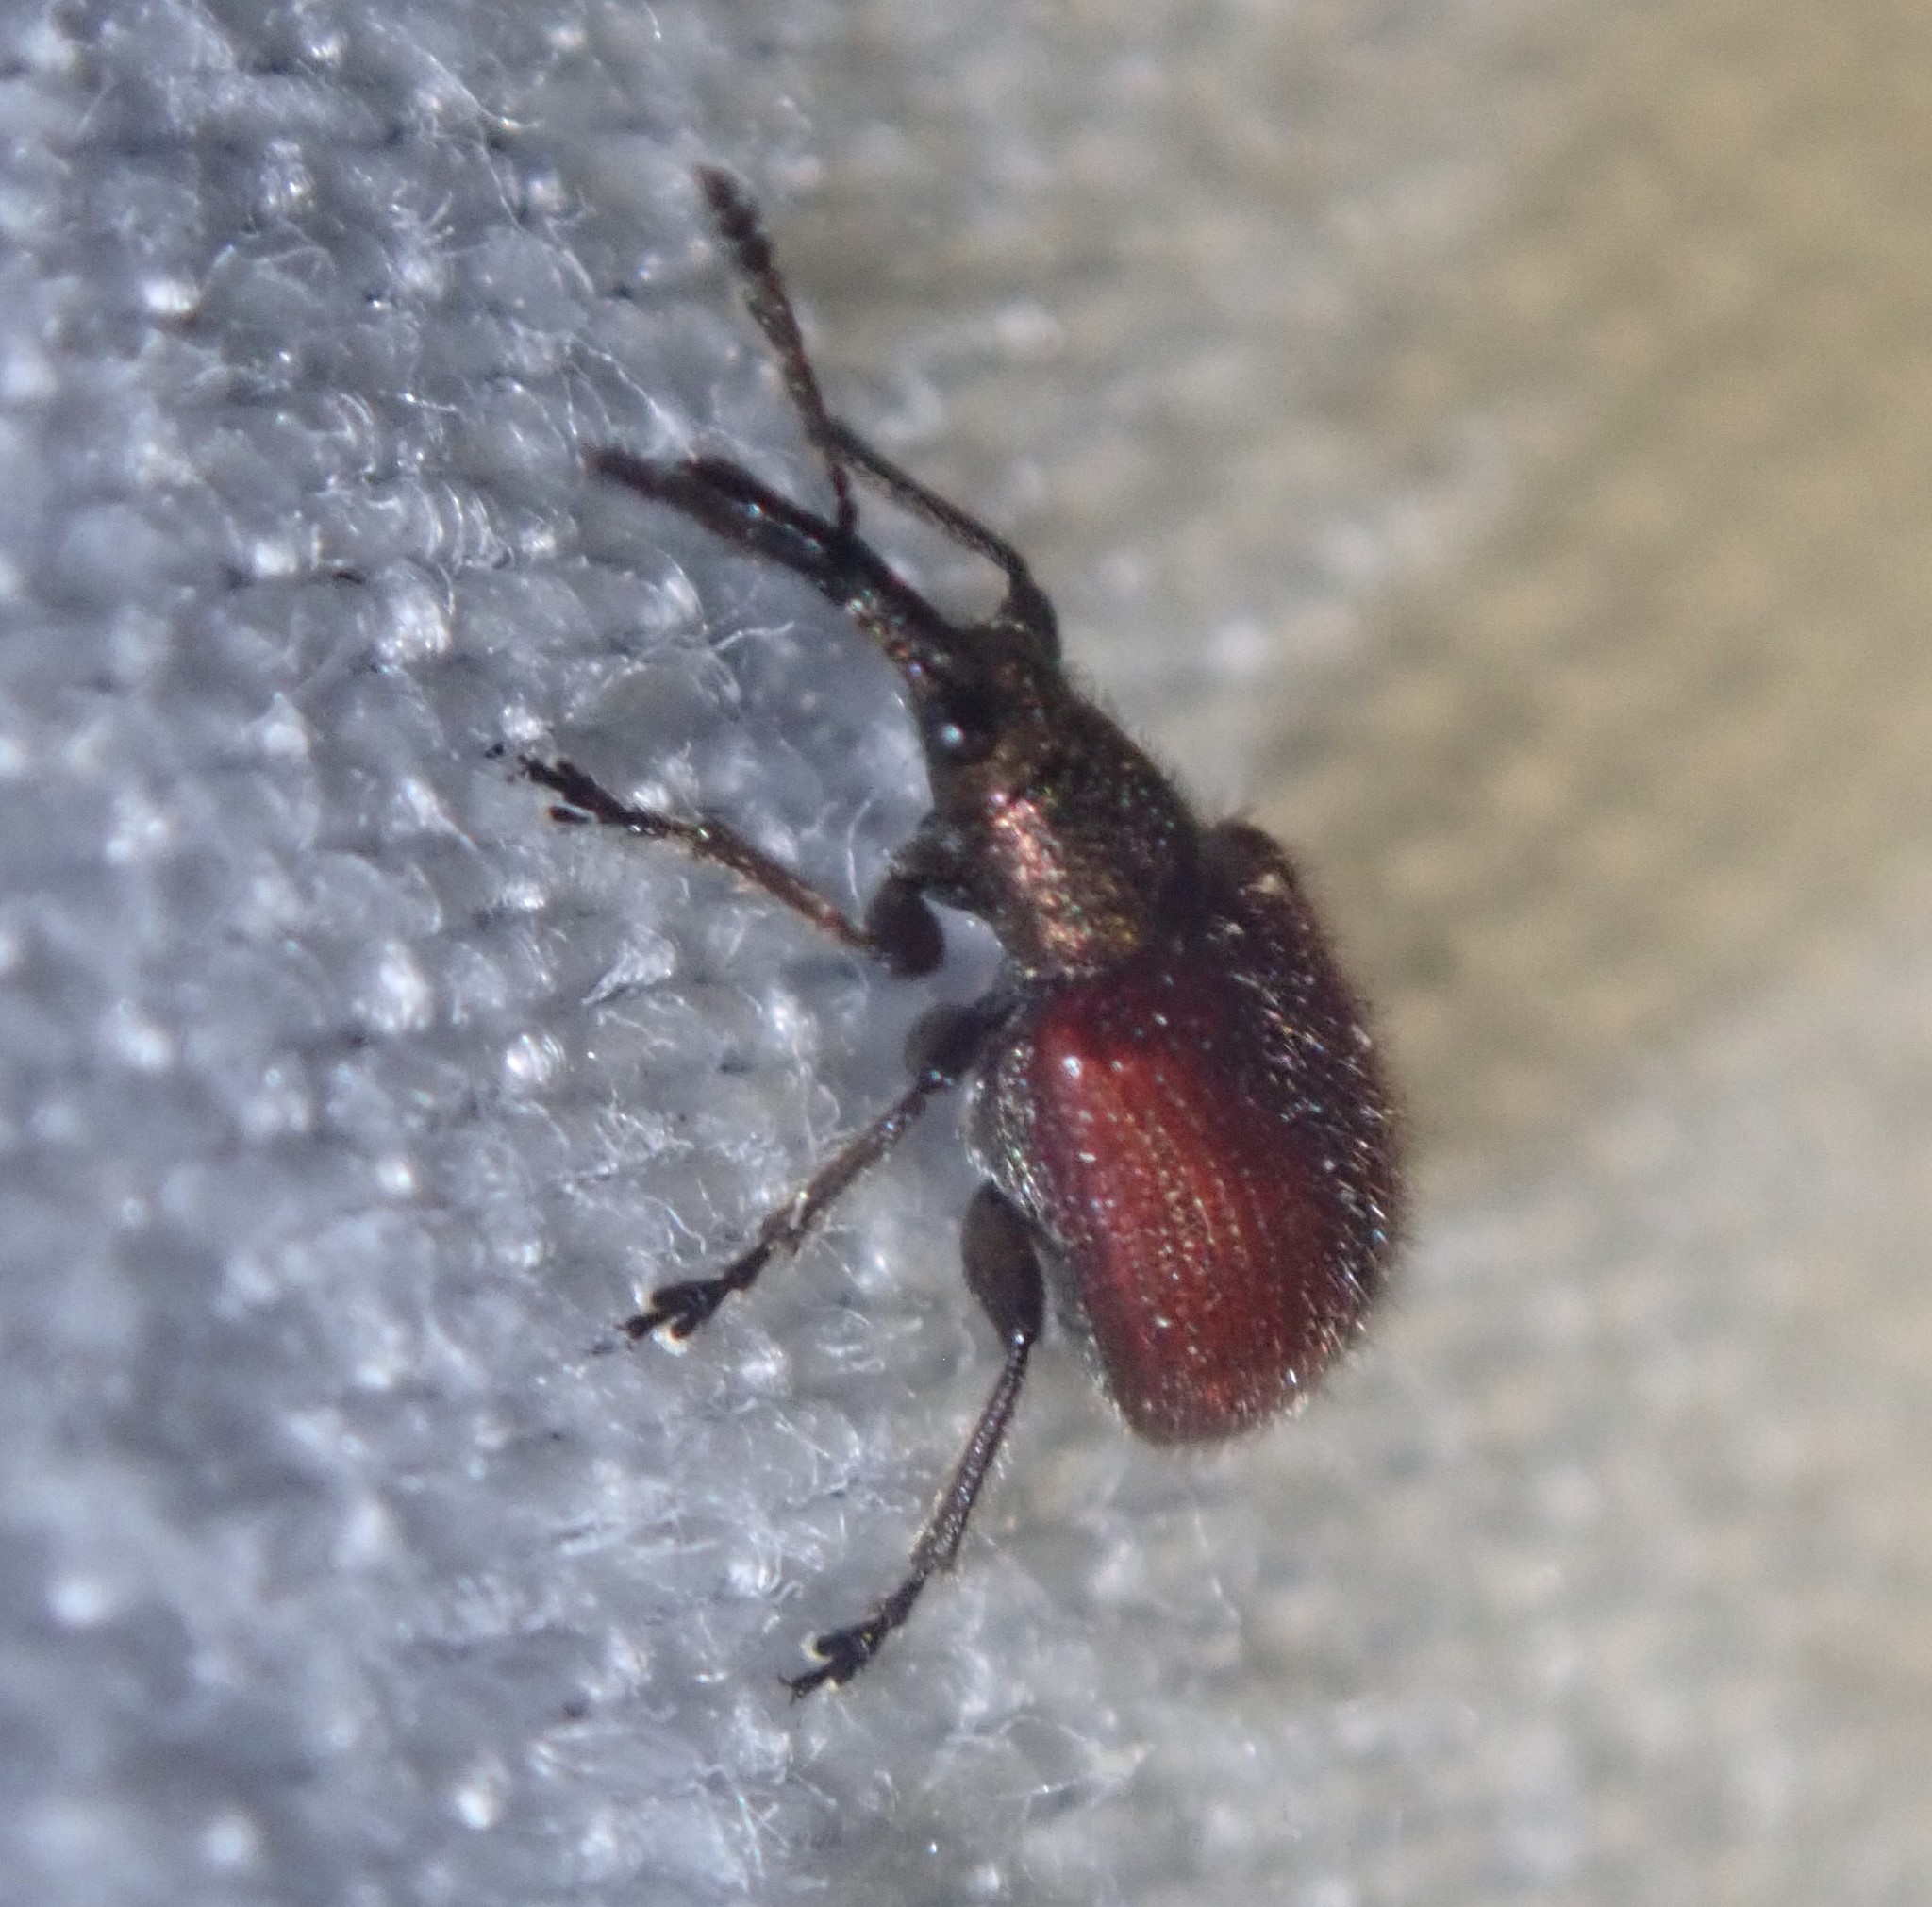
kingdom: Animalia
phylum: Arthropoda
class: Insecta
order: Coleoptera
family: Rhynchitidae
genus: Tatianaerhynchites
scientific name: Tatianaerhynchites aequatus
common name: Apple fruit rhynchites
